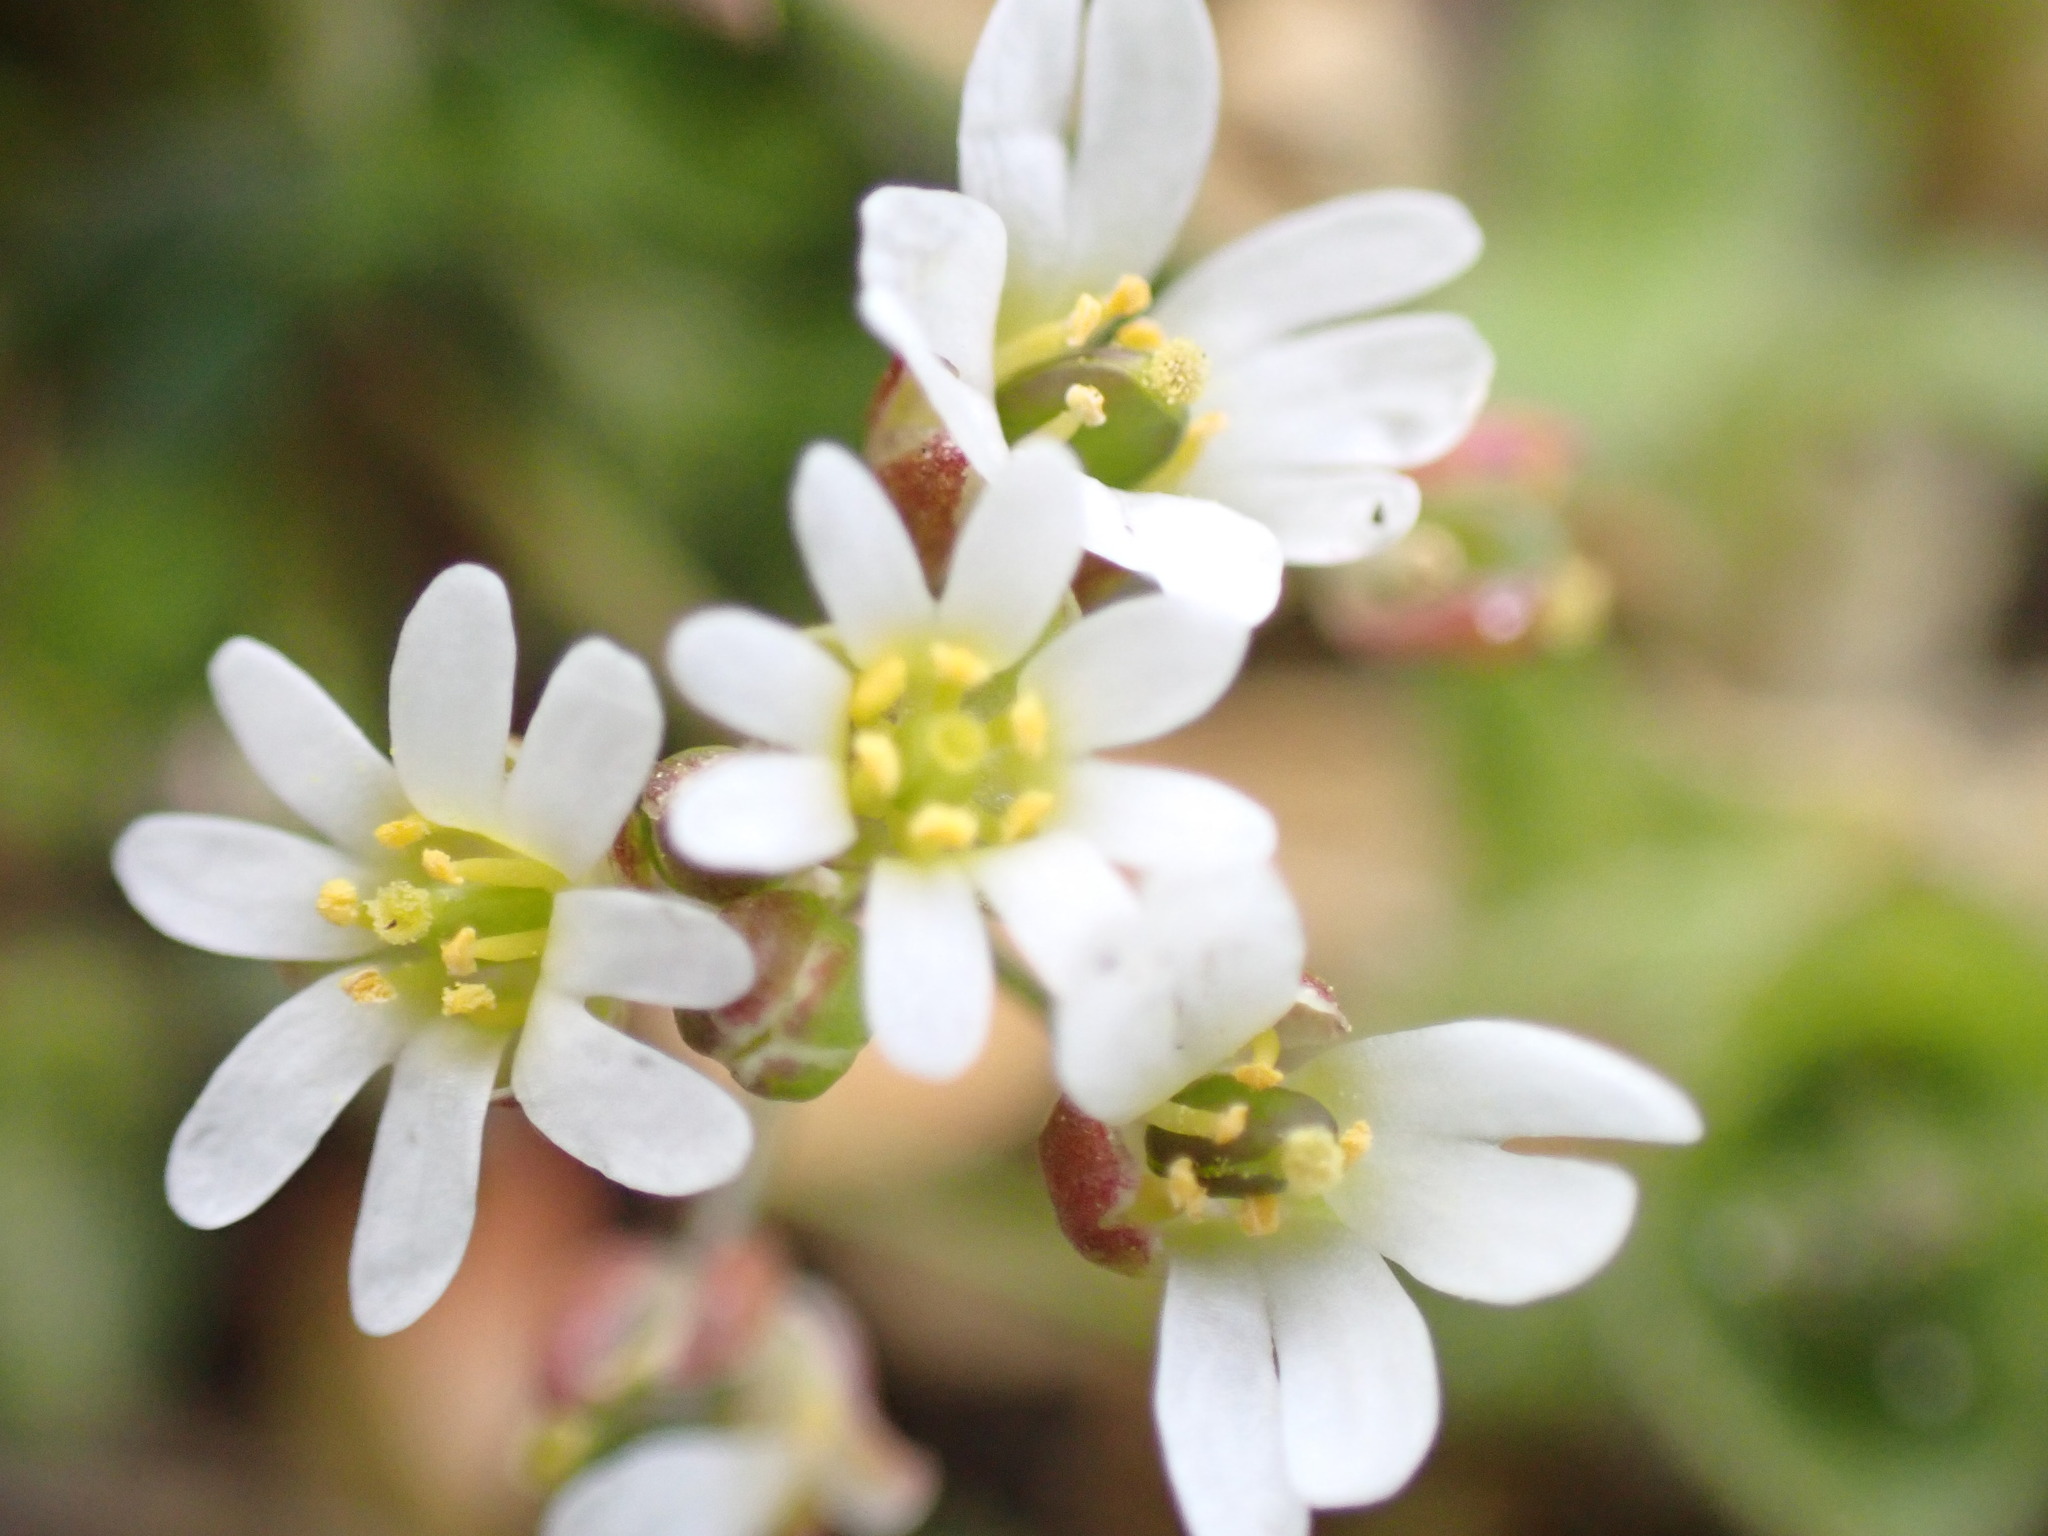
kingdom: Plantae
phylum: Tracheophyta
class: Magnoliopsida
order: Brassicales
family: Brassicaceae
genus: Draba
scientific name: Draba verna
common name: Spring draba
